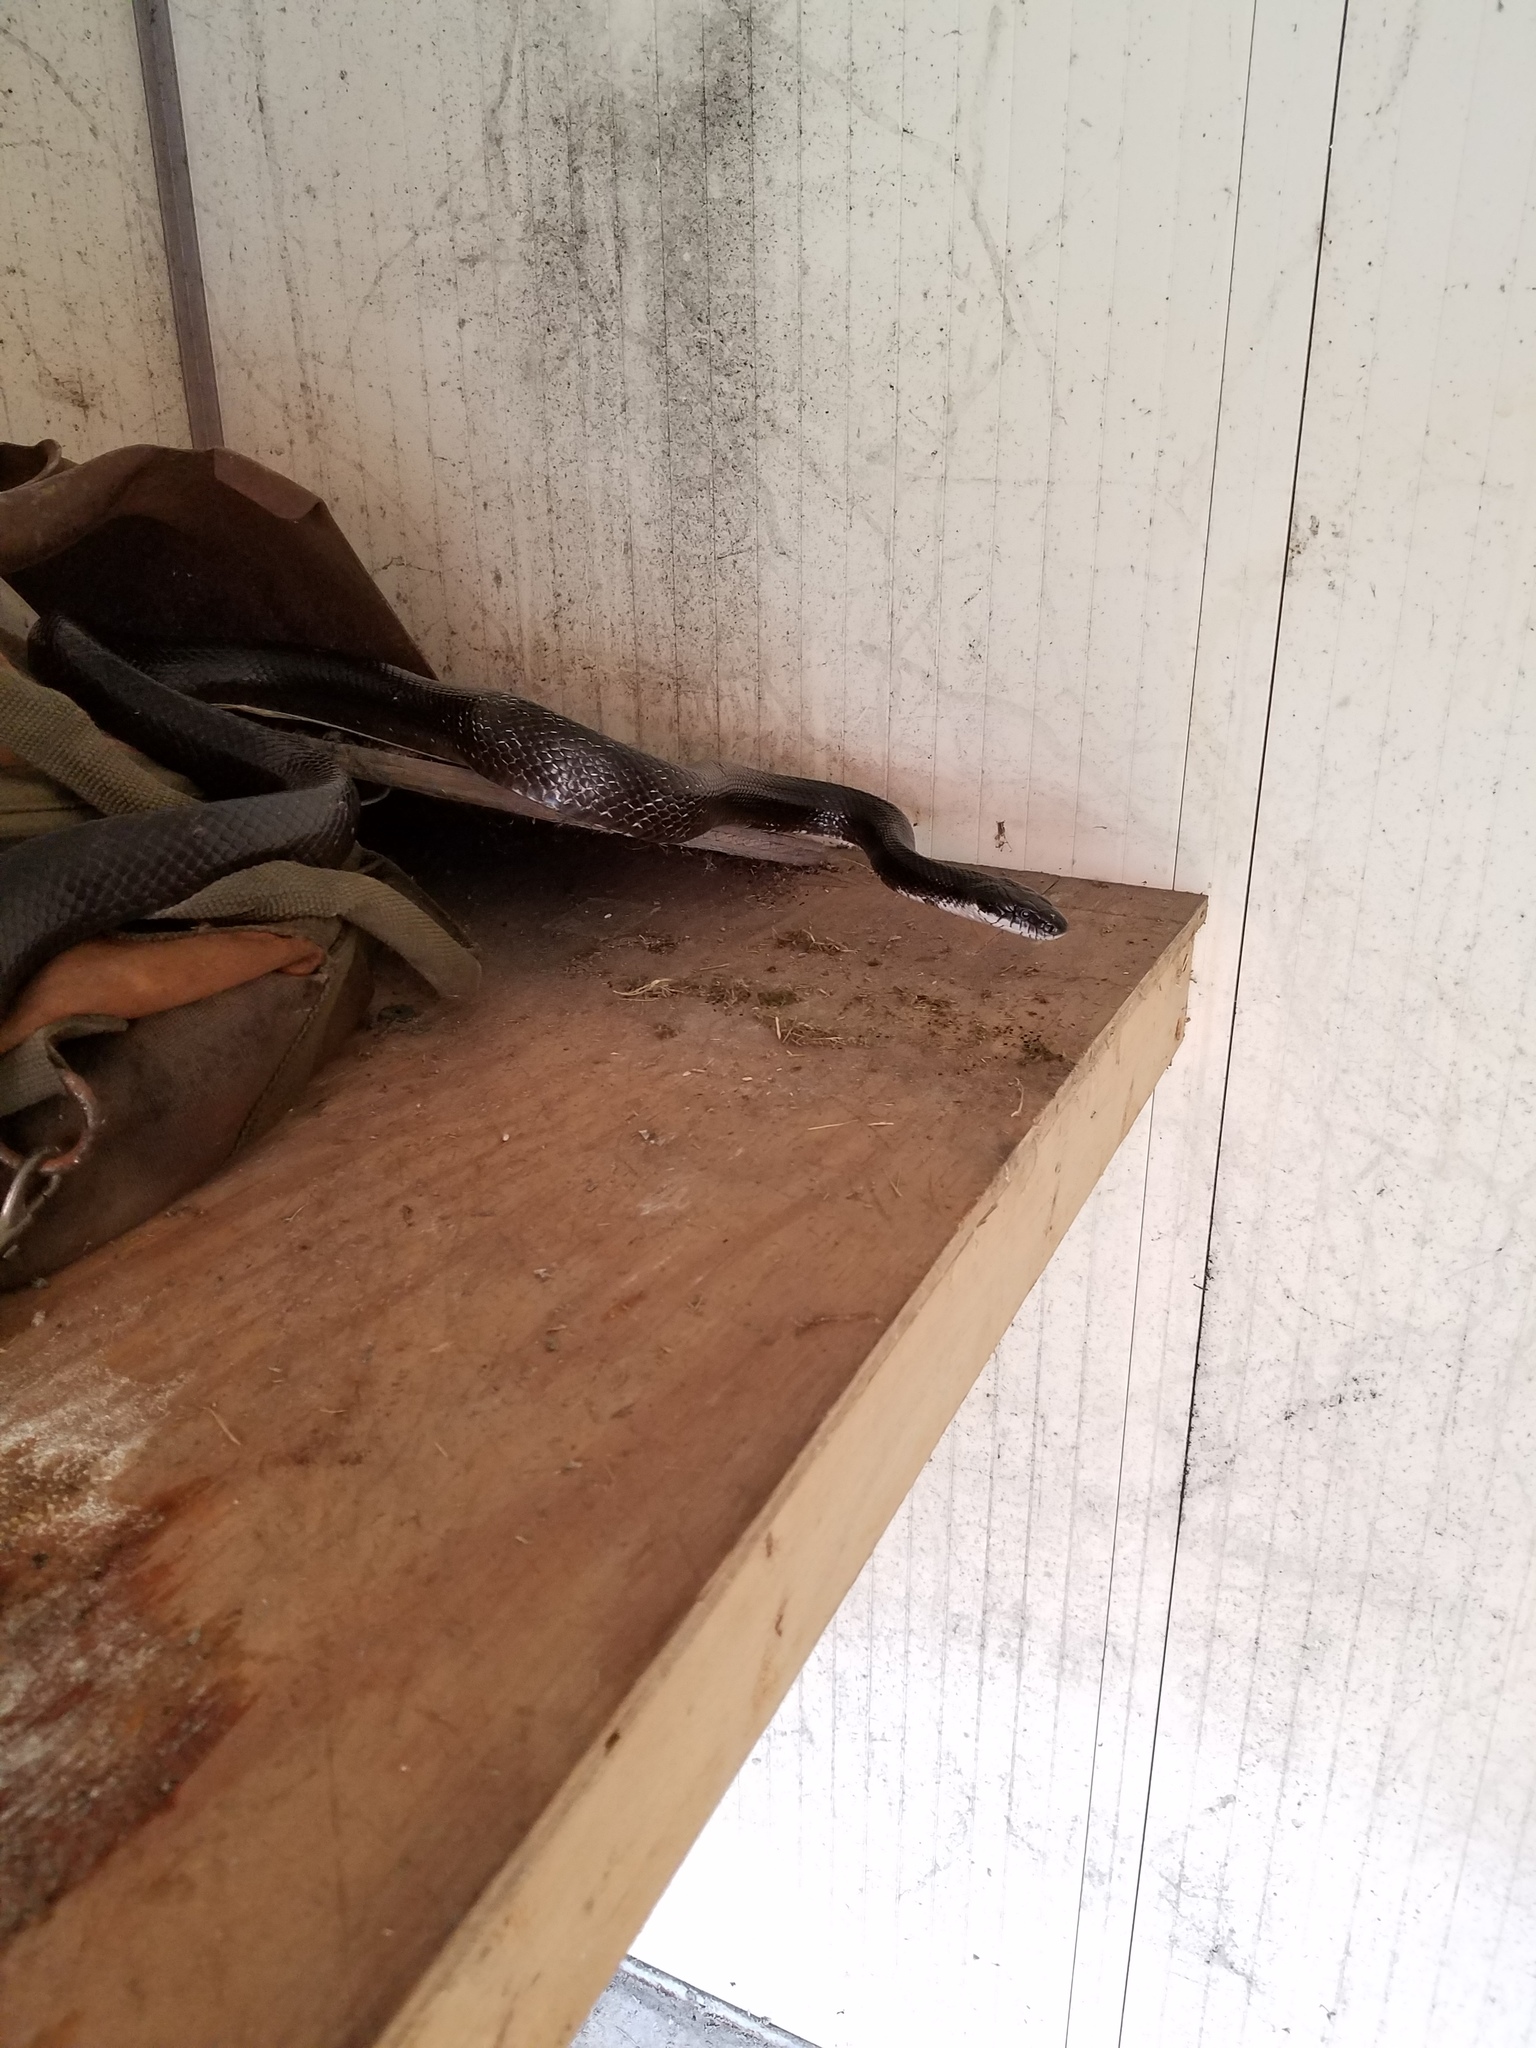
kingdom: Animalia
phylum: Chordata
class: Squamata
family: Colubridae
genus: Pantherophis
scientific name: Pantherophis alleghaniensis
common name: Eastern rat snake
